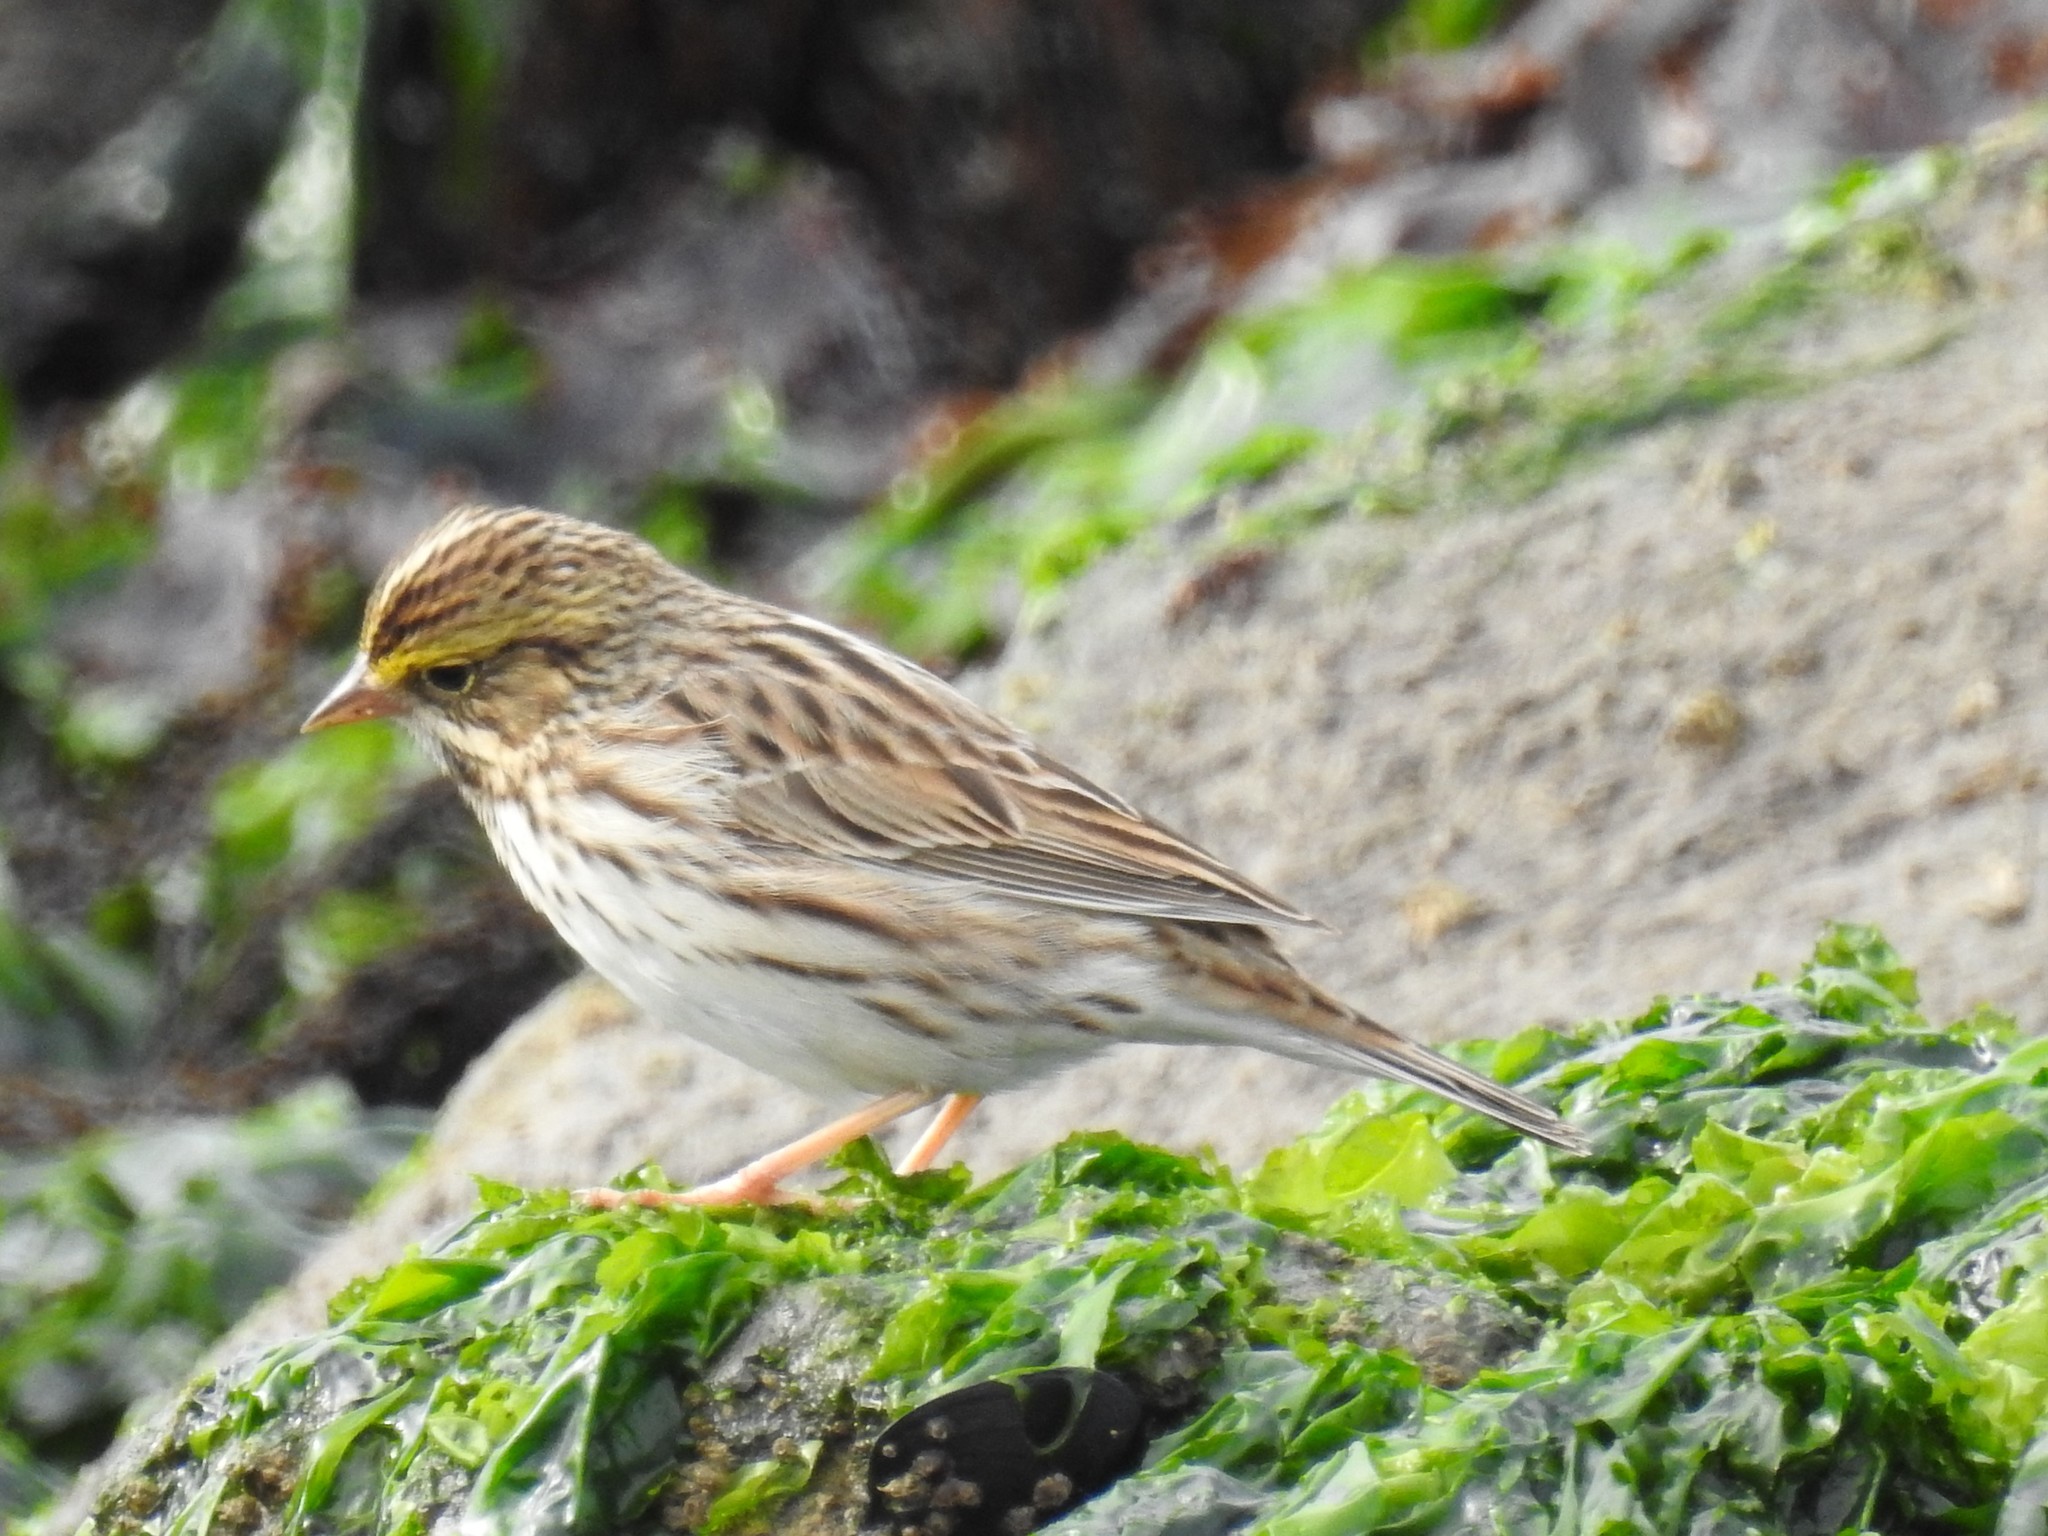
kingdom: Animalia
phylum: Chordata
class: Aves
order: Passeriformes
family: Passerellidae
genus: Passerculus
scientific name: Passerculus sandwichensis
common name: Savannah sparrow
